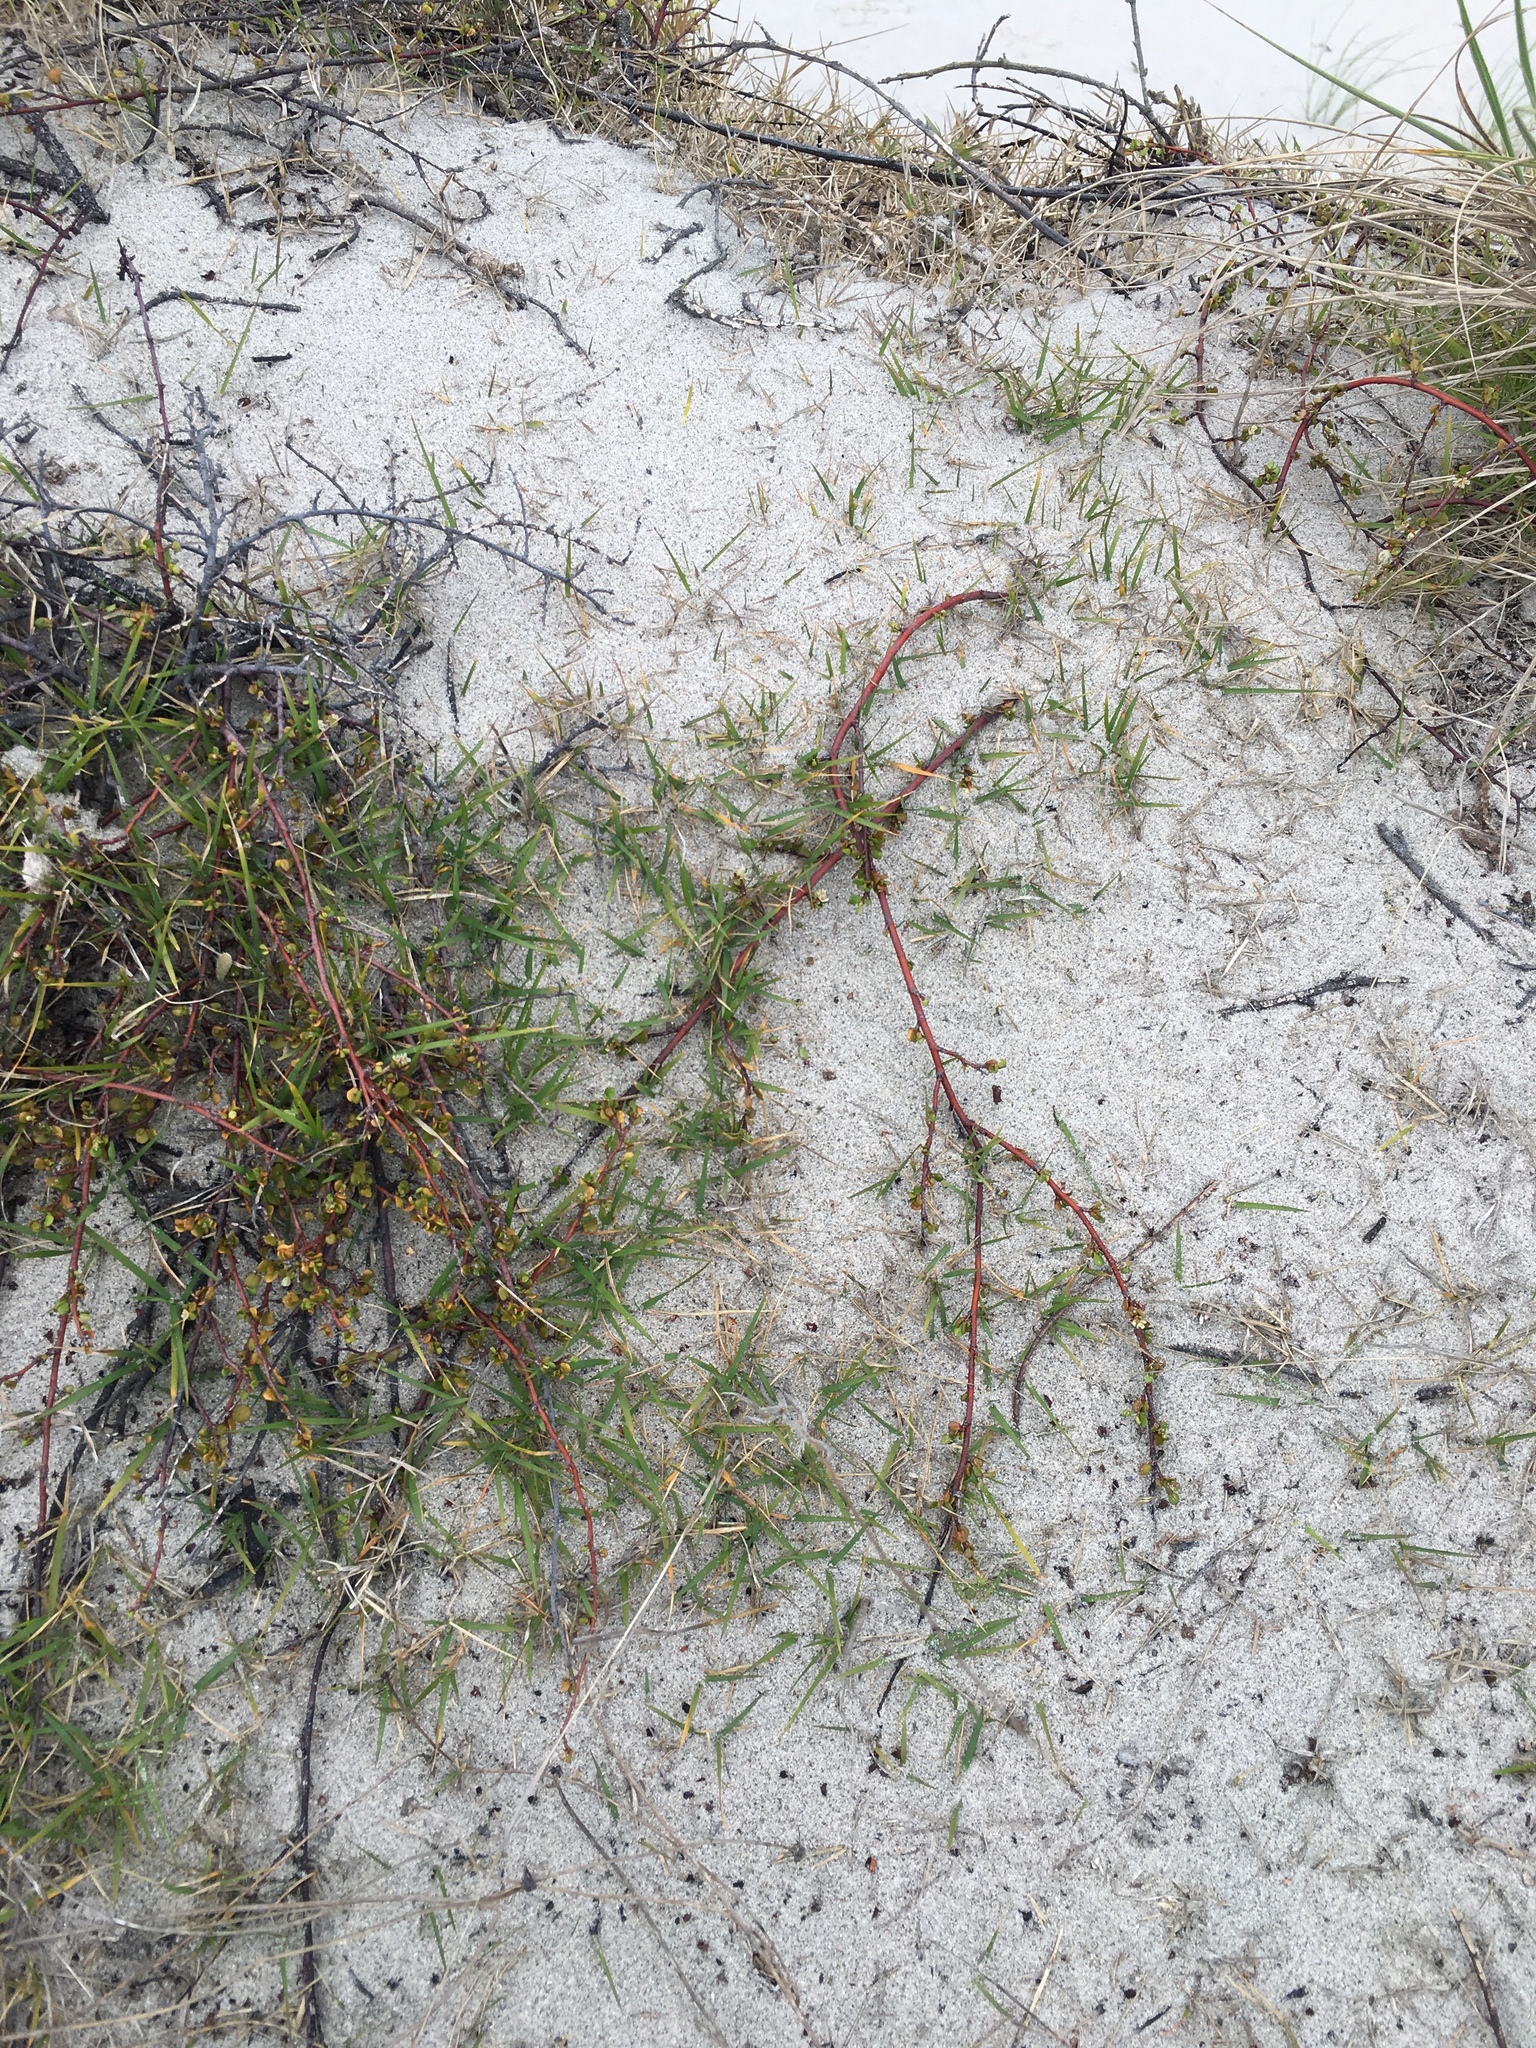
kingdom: Plantae
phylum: Tracheophyta
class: Liliopsida
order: Poales
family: Poaceae
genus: Zoysia
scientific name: Zoysia pauciflora
